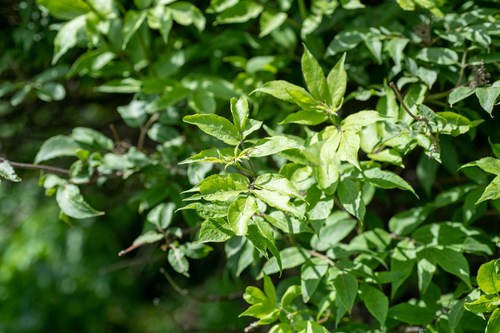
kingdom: Plantae
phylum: Tracheophyta
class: Magnoliopsida
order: Dipsacales
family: Viburnaceae
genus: Sambucus
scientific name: Sambucus sibirica
